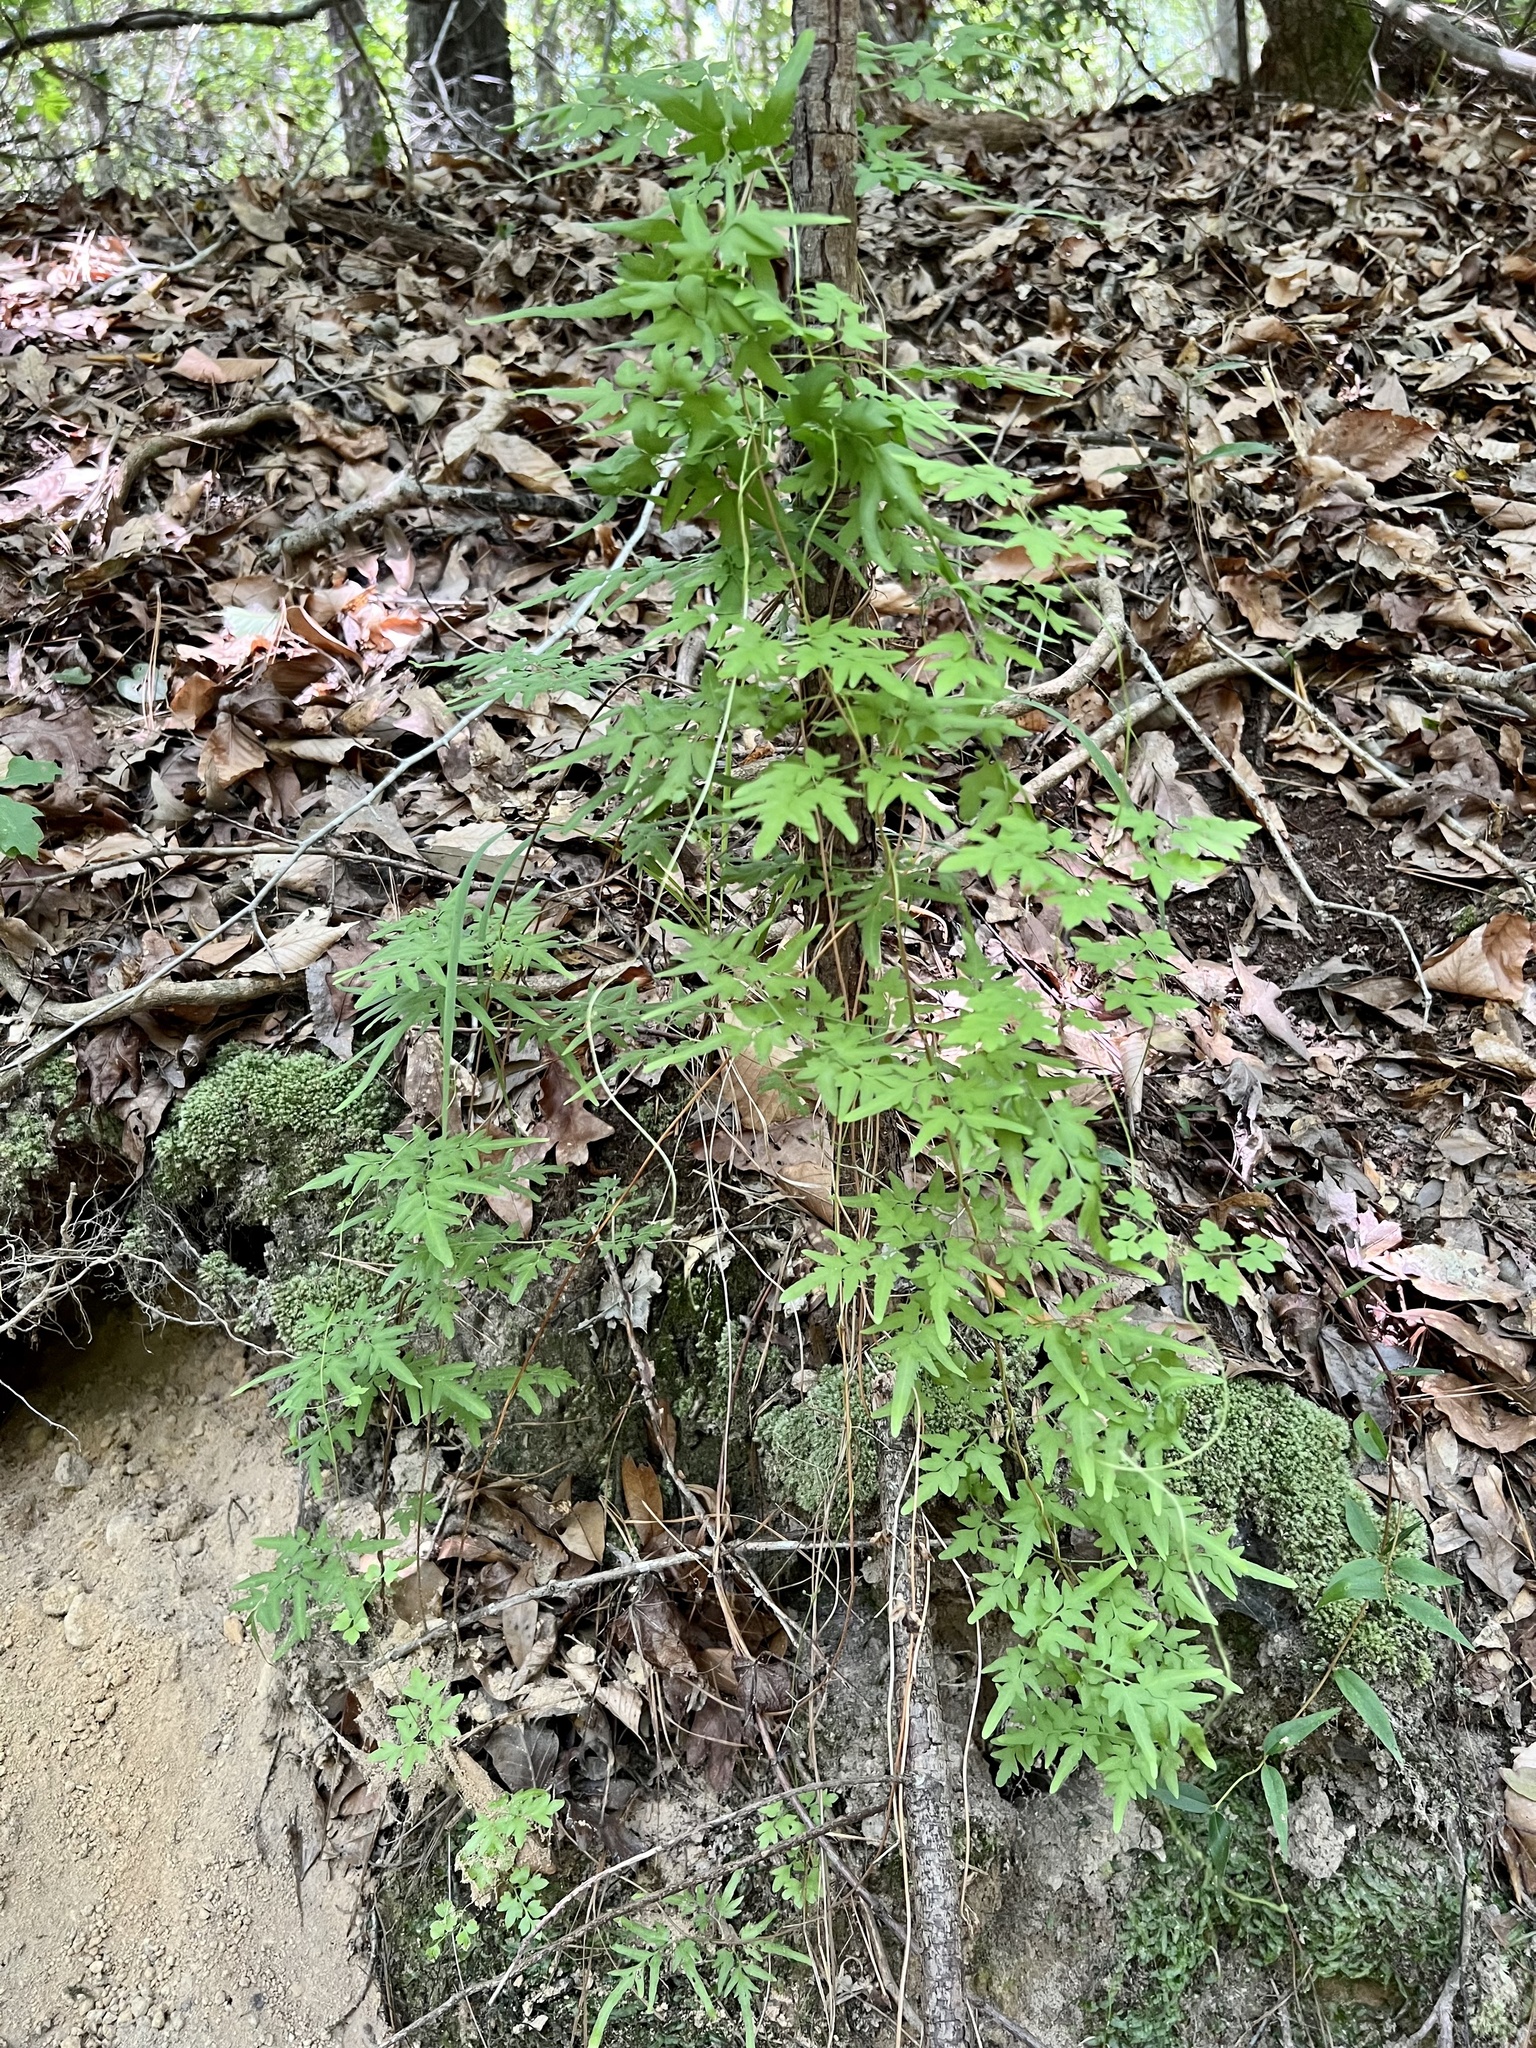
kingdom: Plantae
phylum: Tracheophyta
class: Polypodiopsida
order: Schizaeales
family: Lygodiaceae
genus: Lygodium
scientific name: Lygodium japonicum
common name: Japanese climbing fern
